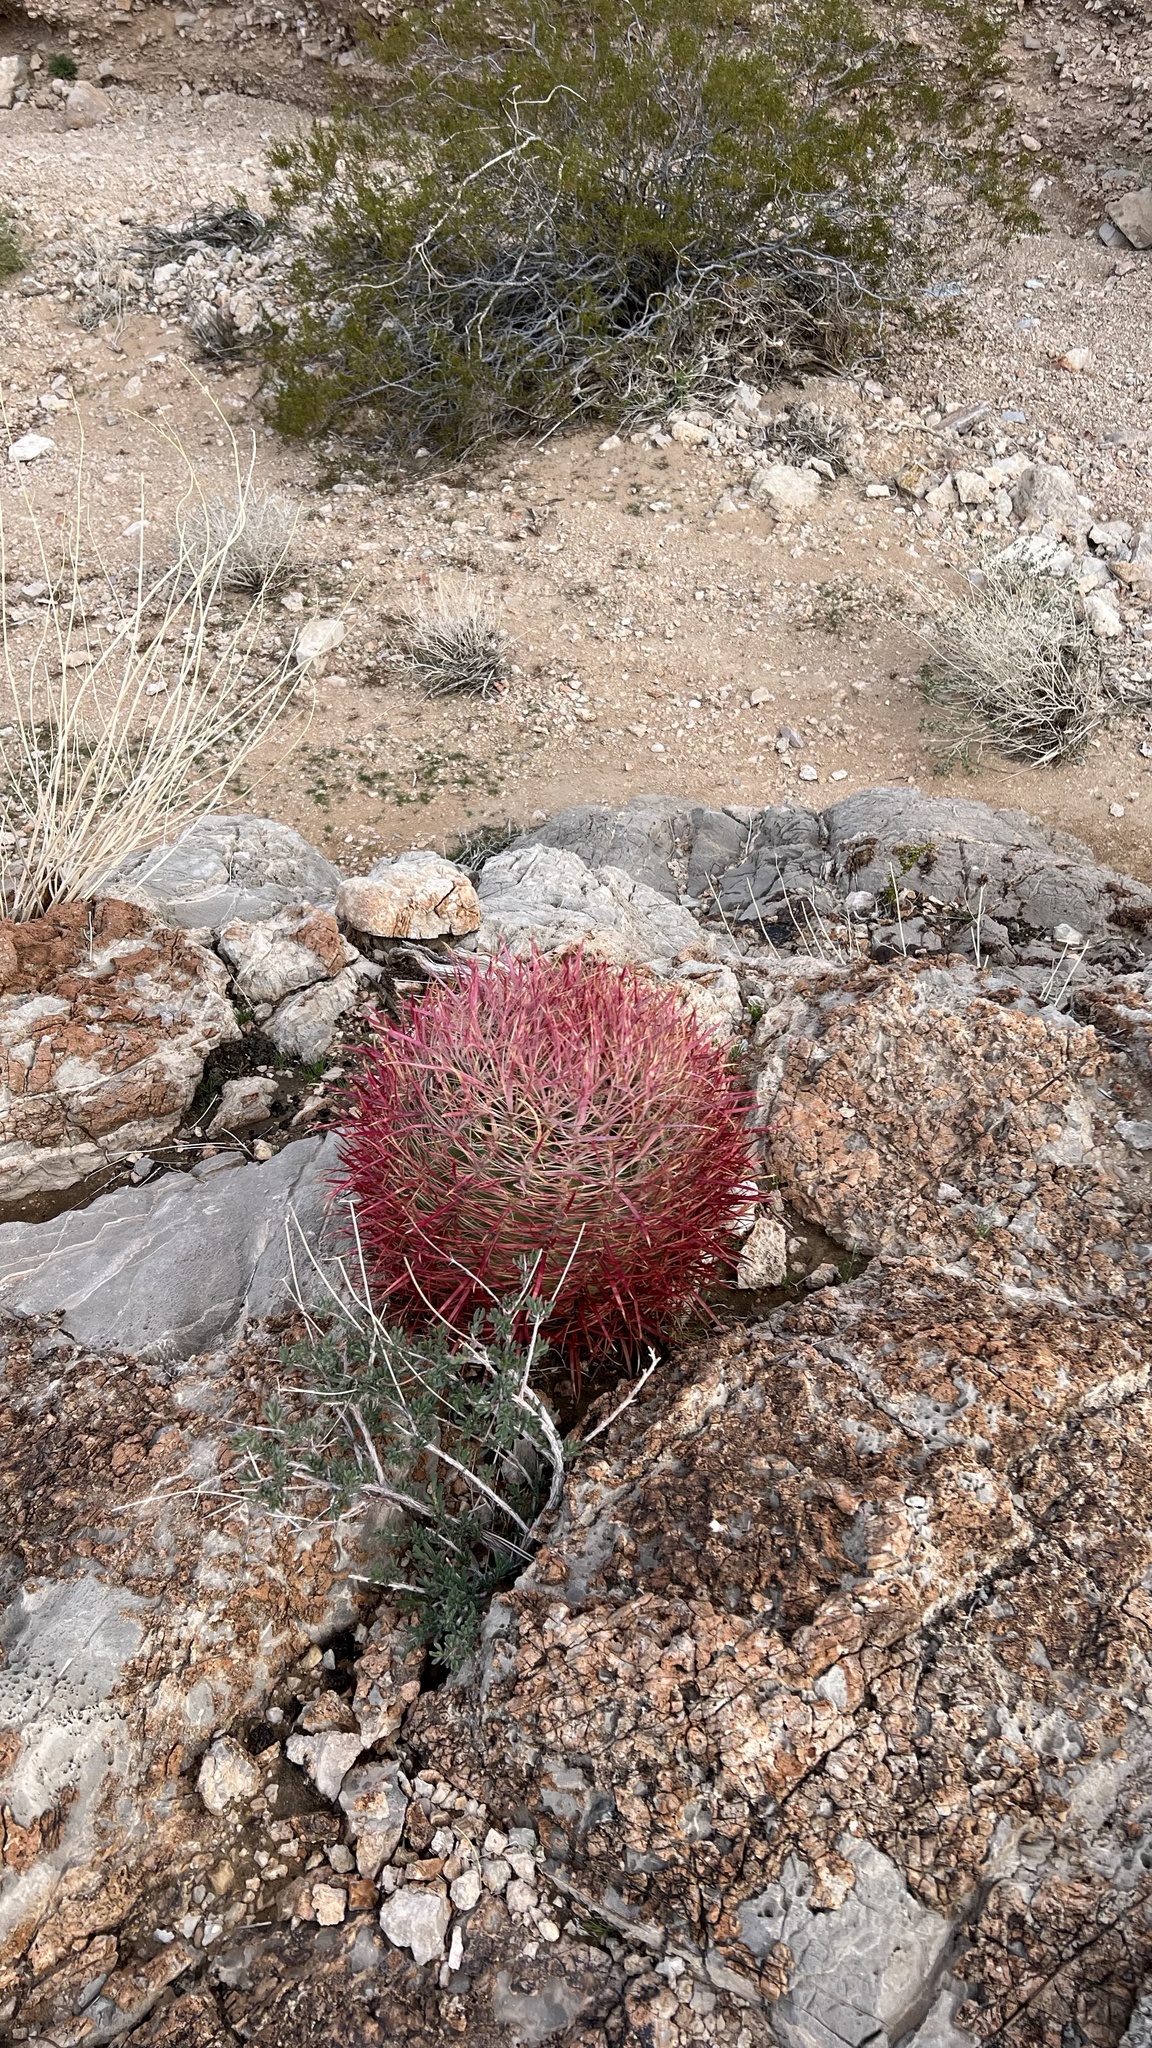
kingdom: Plantae
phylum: Tracheophyta
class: Magnoliopsida
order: Caryophyllales
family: Cactaceae
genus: Ferocactus
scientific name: Ferocactus cylindraceus
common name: California barrel cactus
